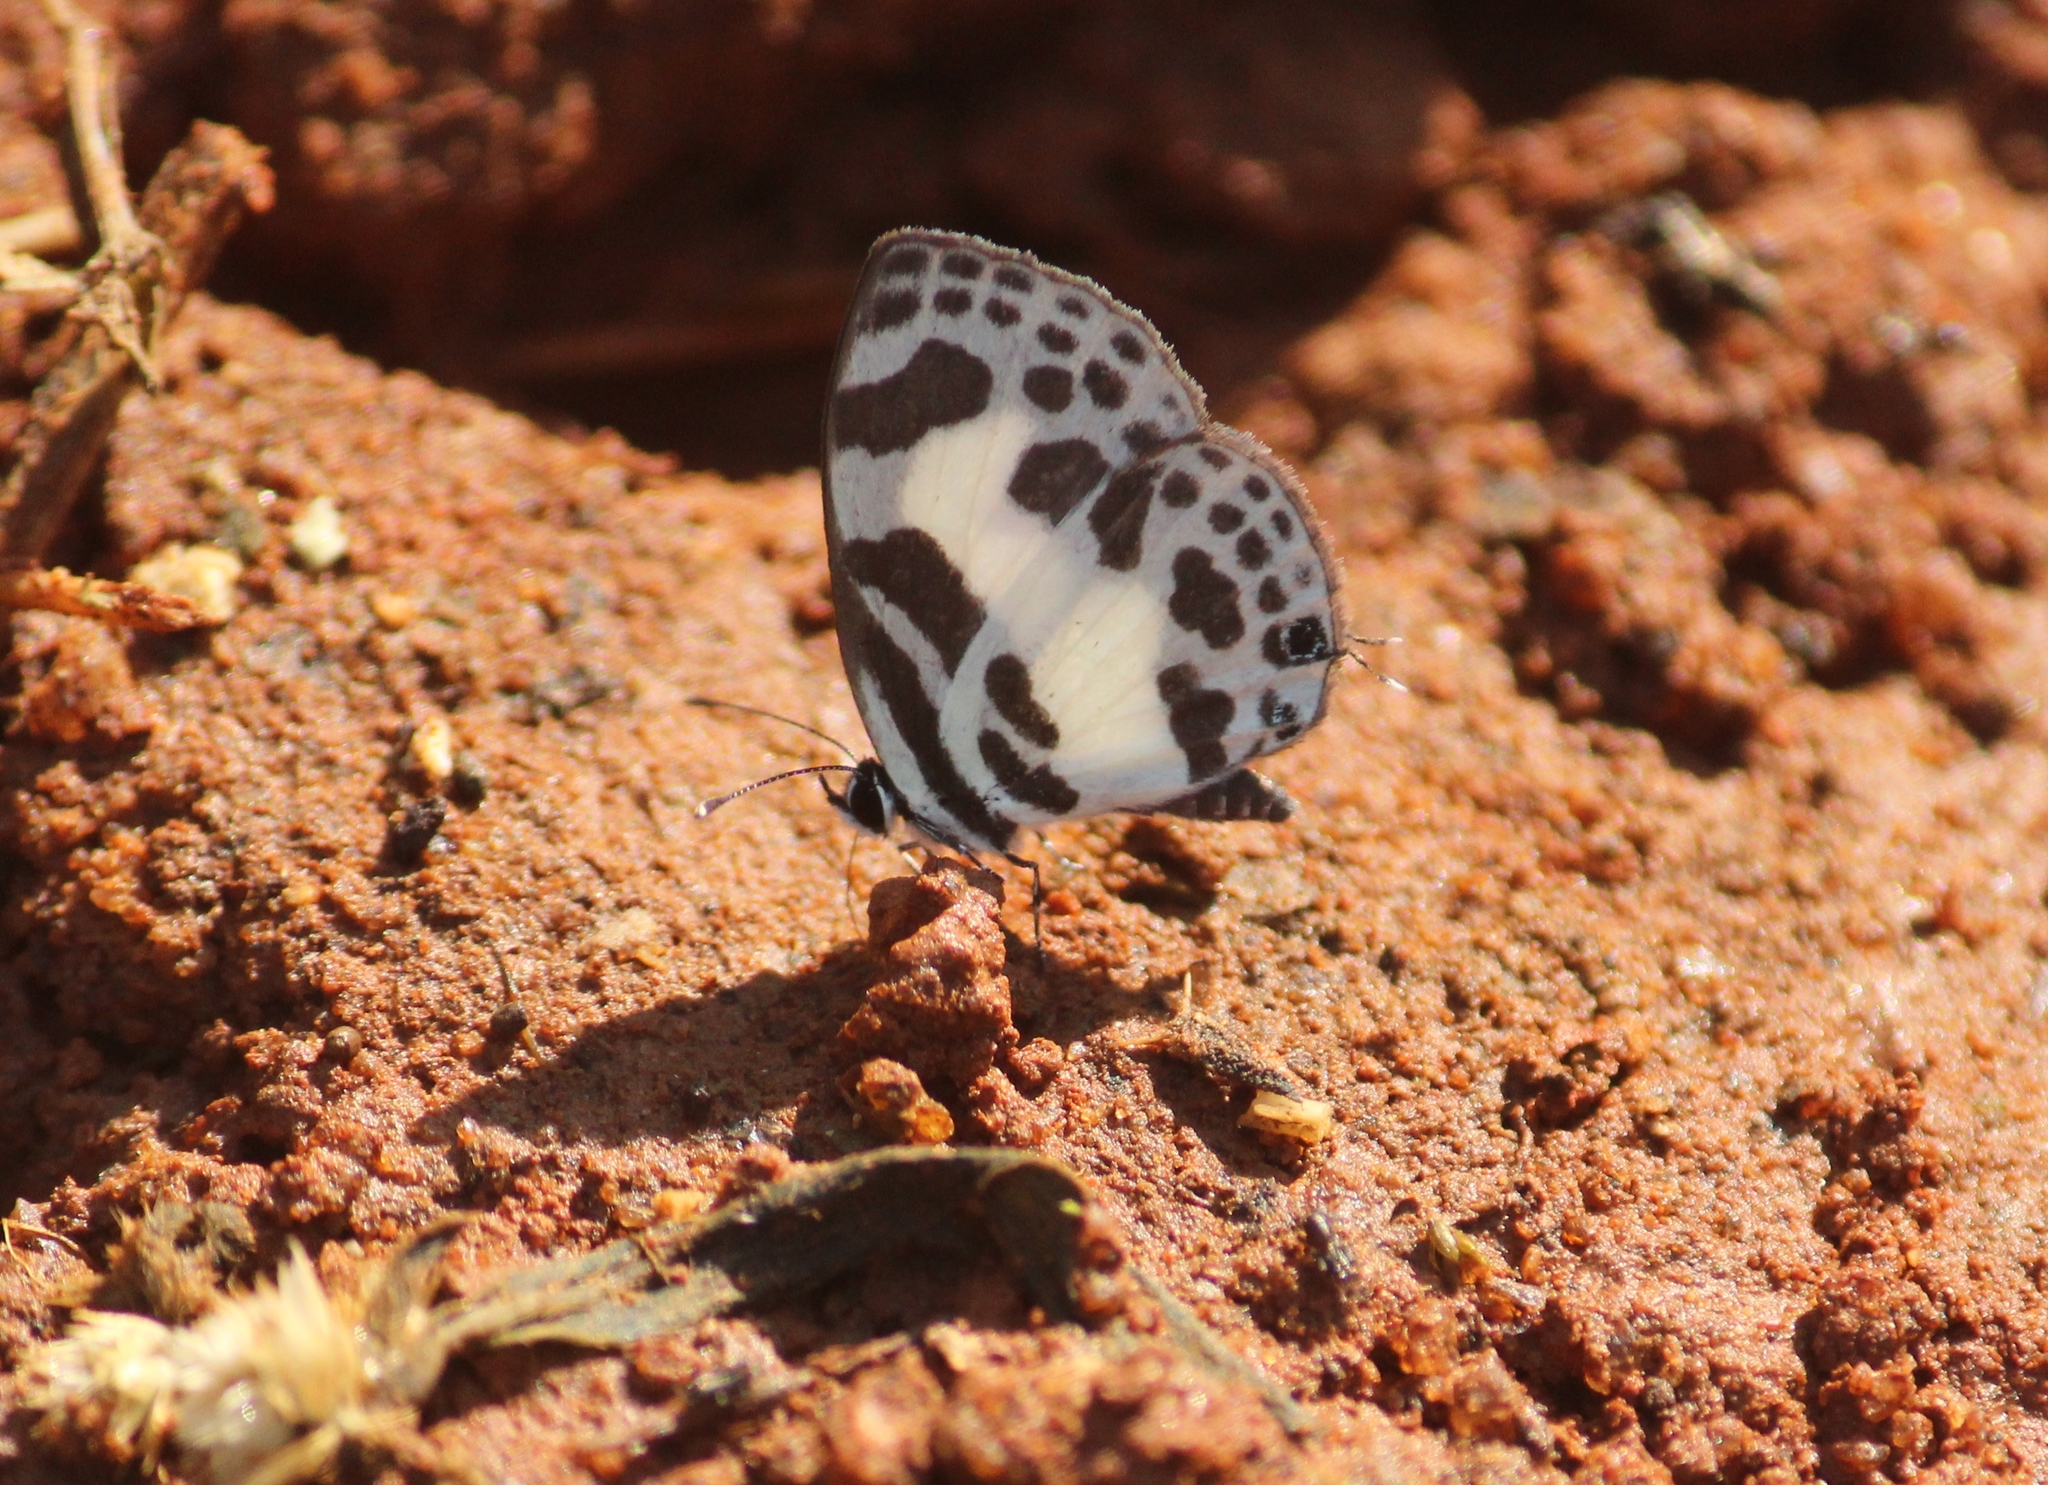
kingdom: Animalia
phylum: Arthropoda
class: Insecta
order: Lepidoptera
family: Lycaenidae
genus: Discolampa
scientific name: Discolampa ethion
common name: Banded blue pierrot
